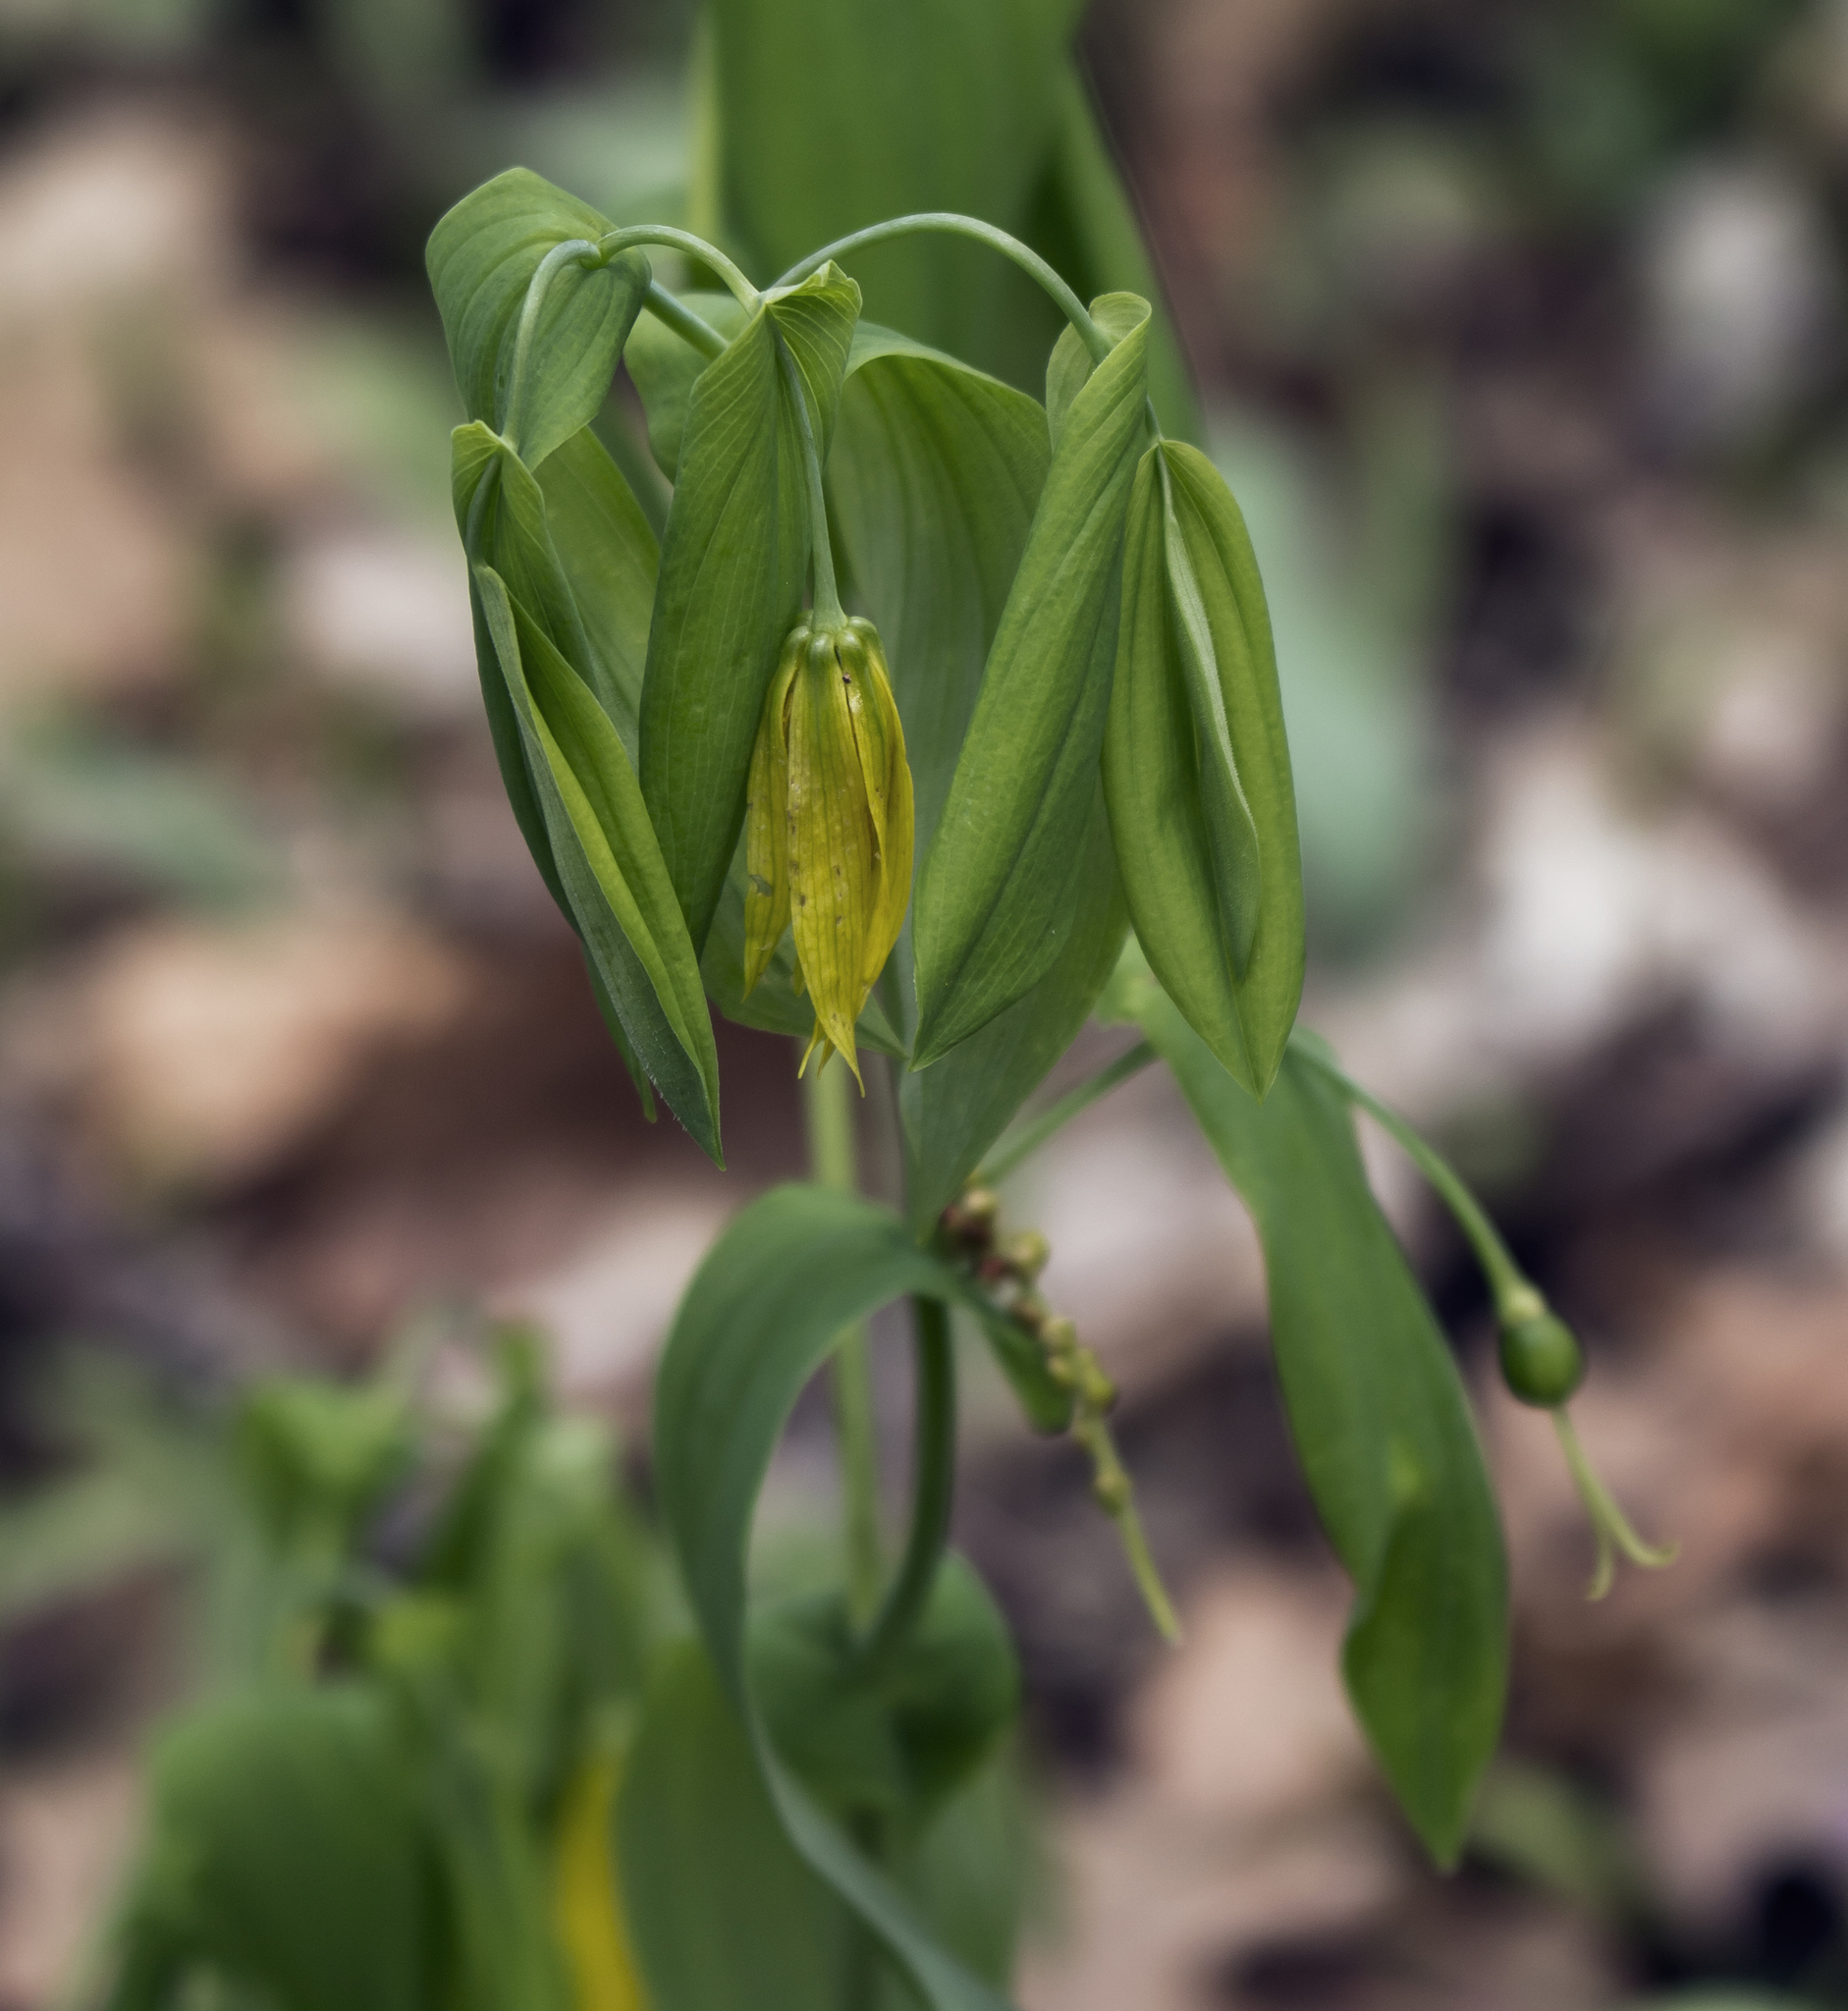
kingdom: Plantae
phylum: Tracheophyta
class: Liliopsida
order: Liliales
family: Colchicaceae
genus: Uvularia
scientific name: Uvularia grandiflora
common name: Bellwort
